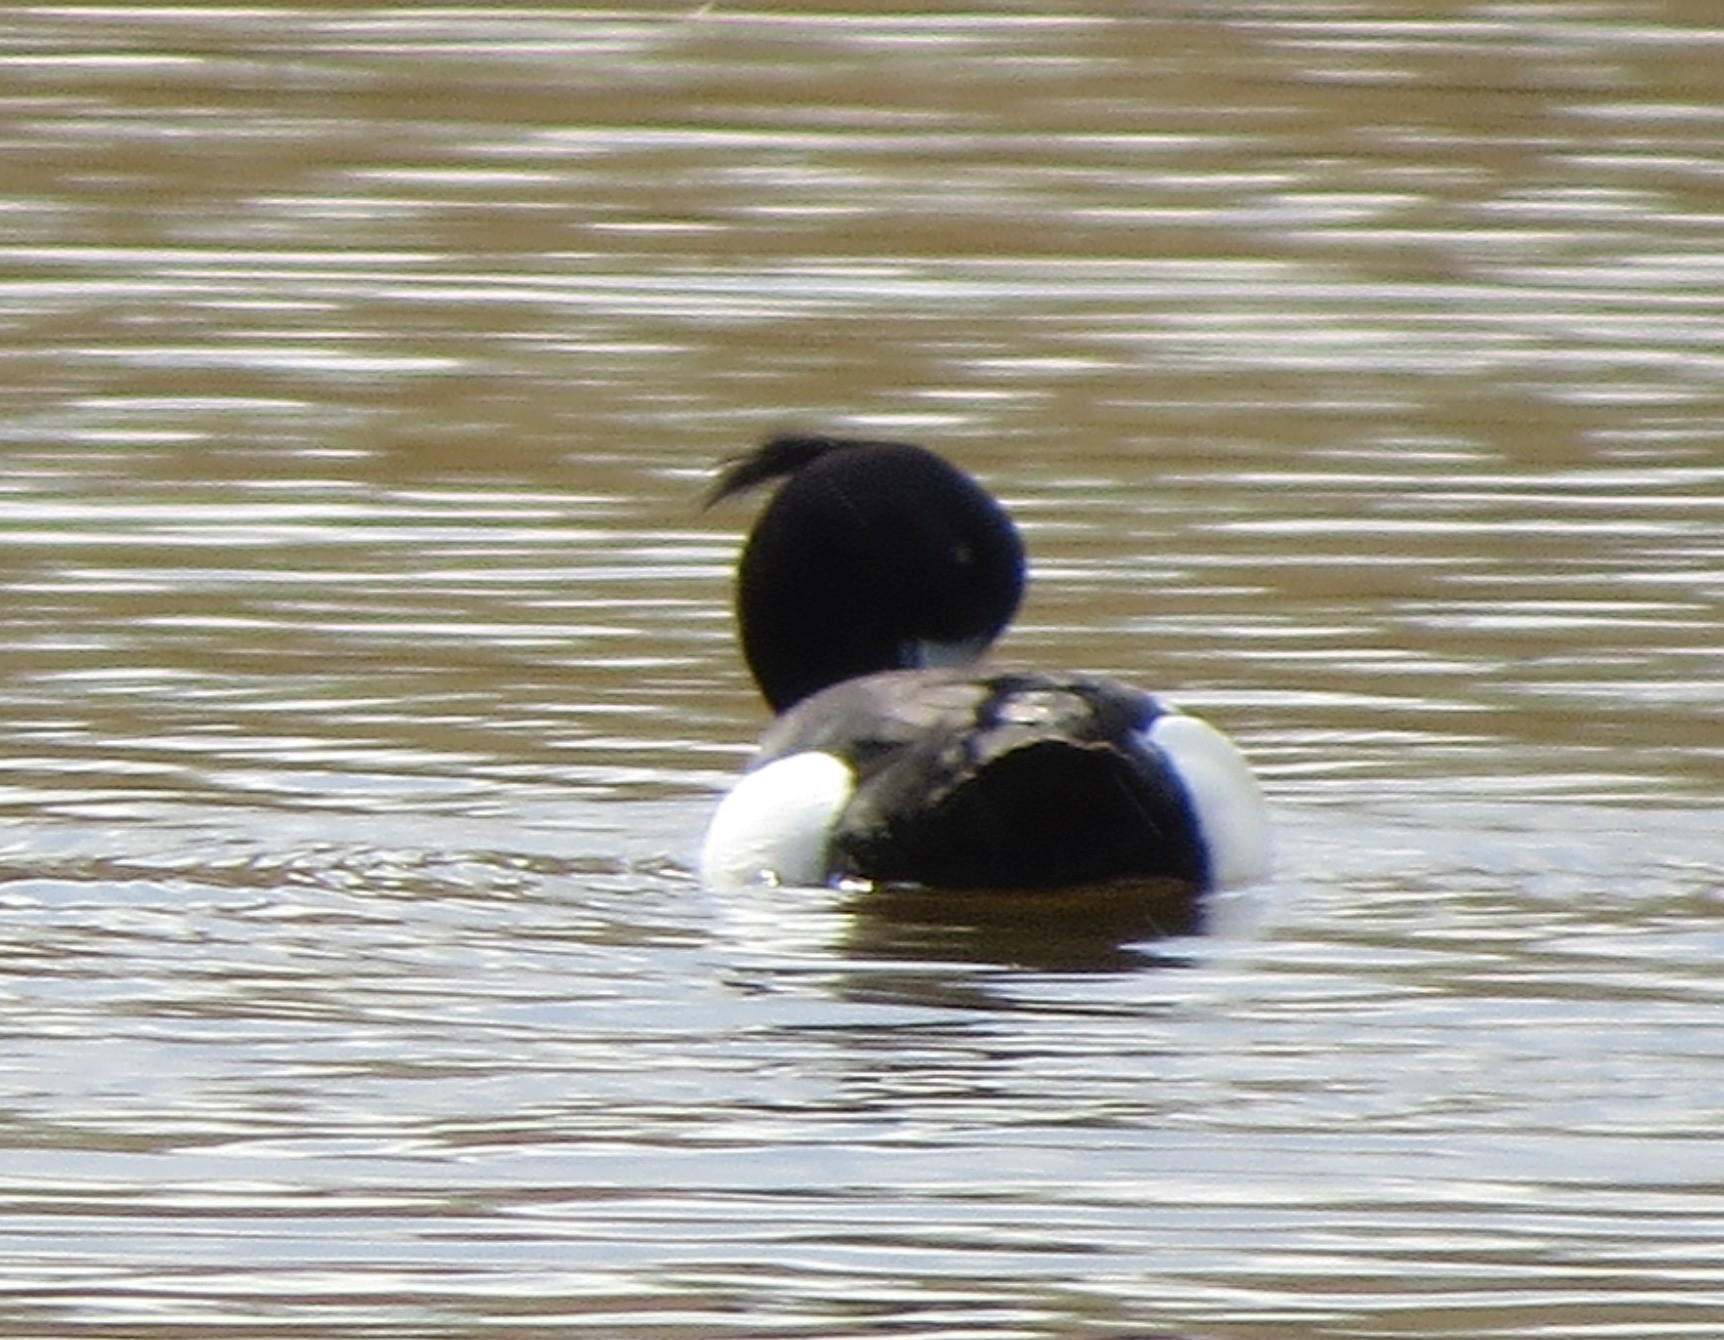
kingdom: Animalia
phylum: Chordata
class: Aves
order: Anseriformes
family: Anatidae
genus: Aythya
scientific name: Aythya fuligula
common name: Tufted duck
